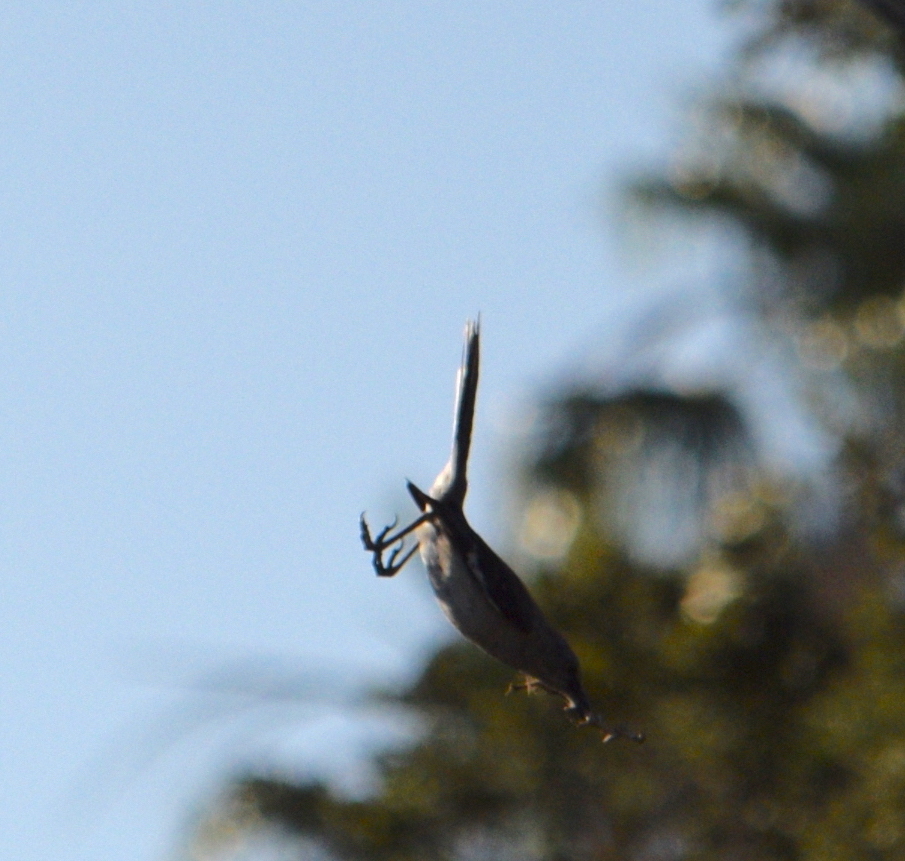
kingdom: Animalia
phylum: Chordata
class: Aves
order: Passeriformes
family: Mimidae
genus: Mimus
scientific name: Mimus polyglottos
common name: Northern mockingbird
